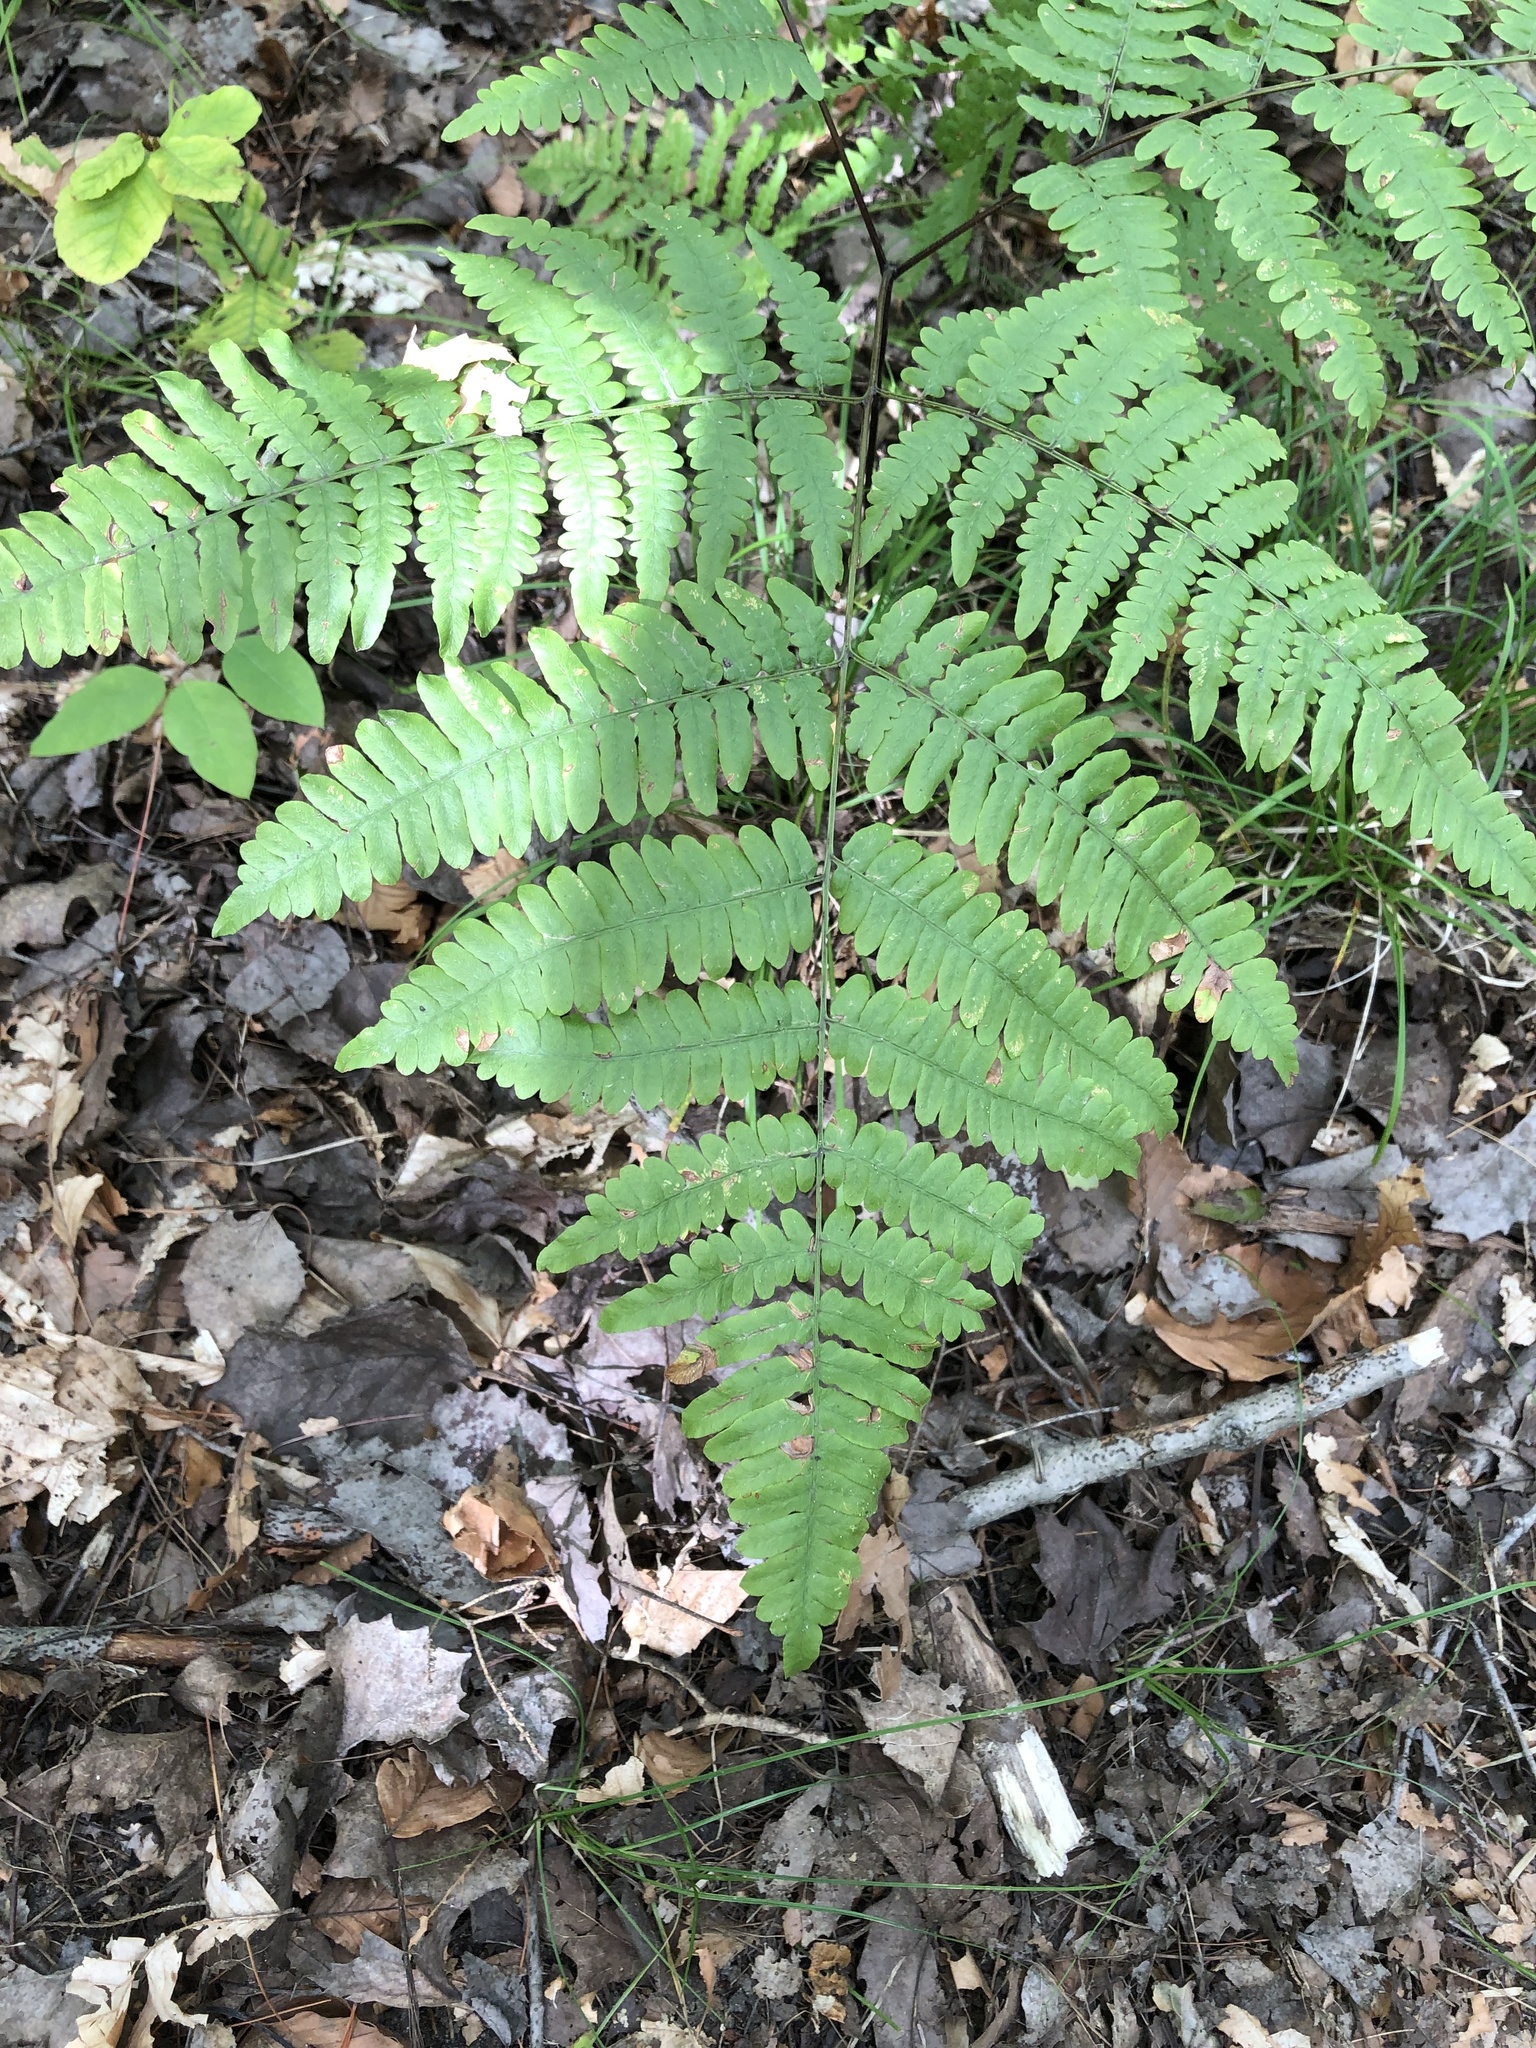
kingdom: Plantae
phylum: Tracheophyta
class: Polypodiopsida
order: Polypodiales
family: Dennstaedtiaceae
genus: Pteridium
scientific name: Pteridium aquilinum
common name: Bracken
